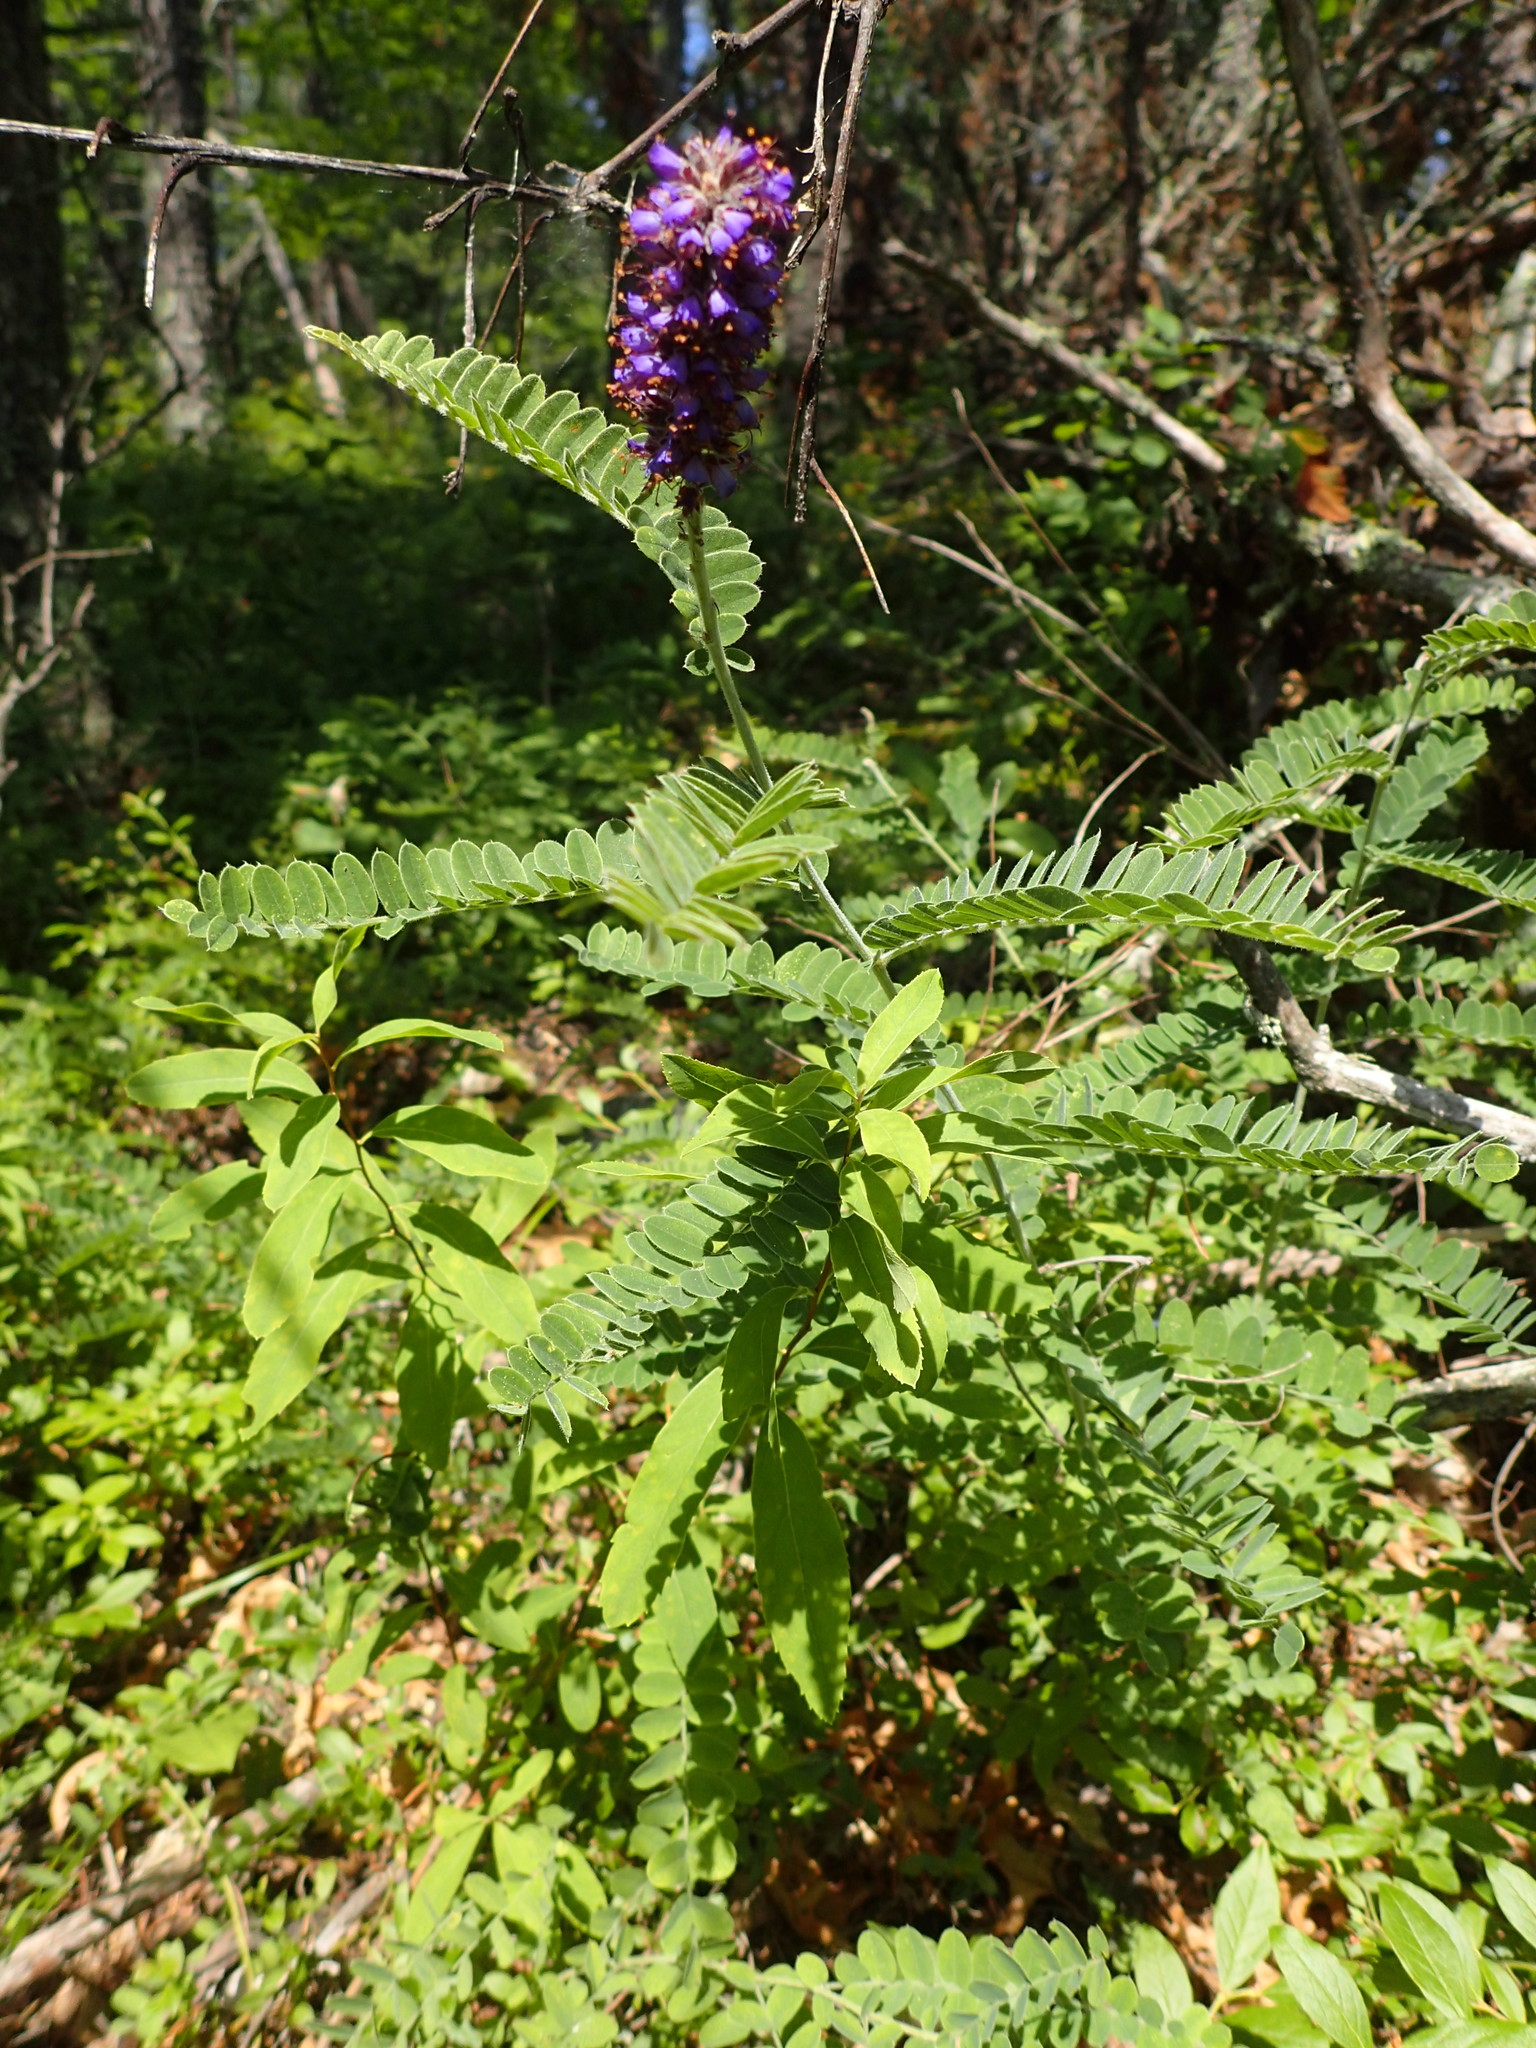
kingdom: Plantae
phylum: Tracheophyta
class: Magnoliopsida
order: Fabales
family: Fabaceae
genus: Amorpha
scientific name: Amorpha canescens
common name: Leadplant
